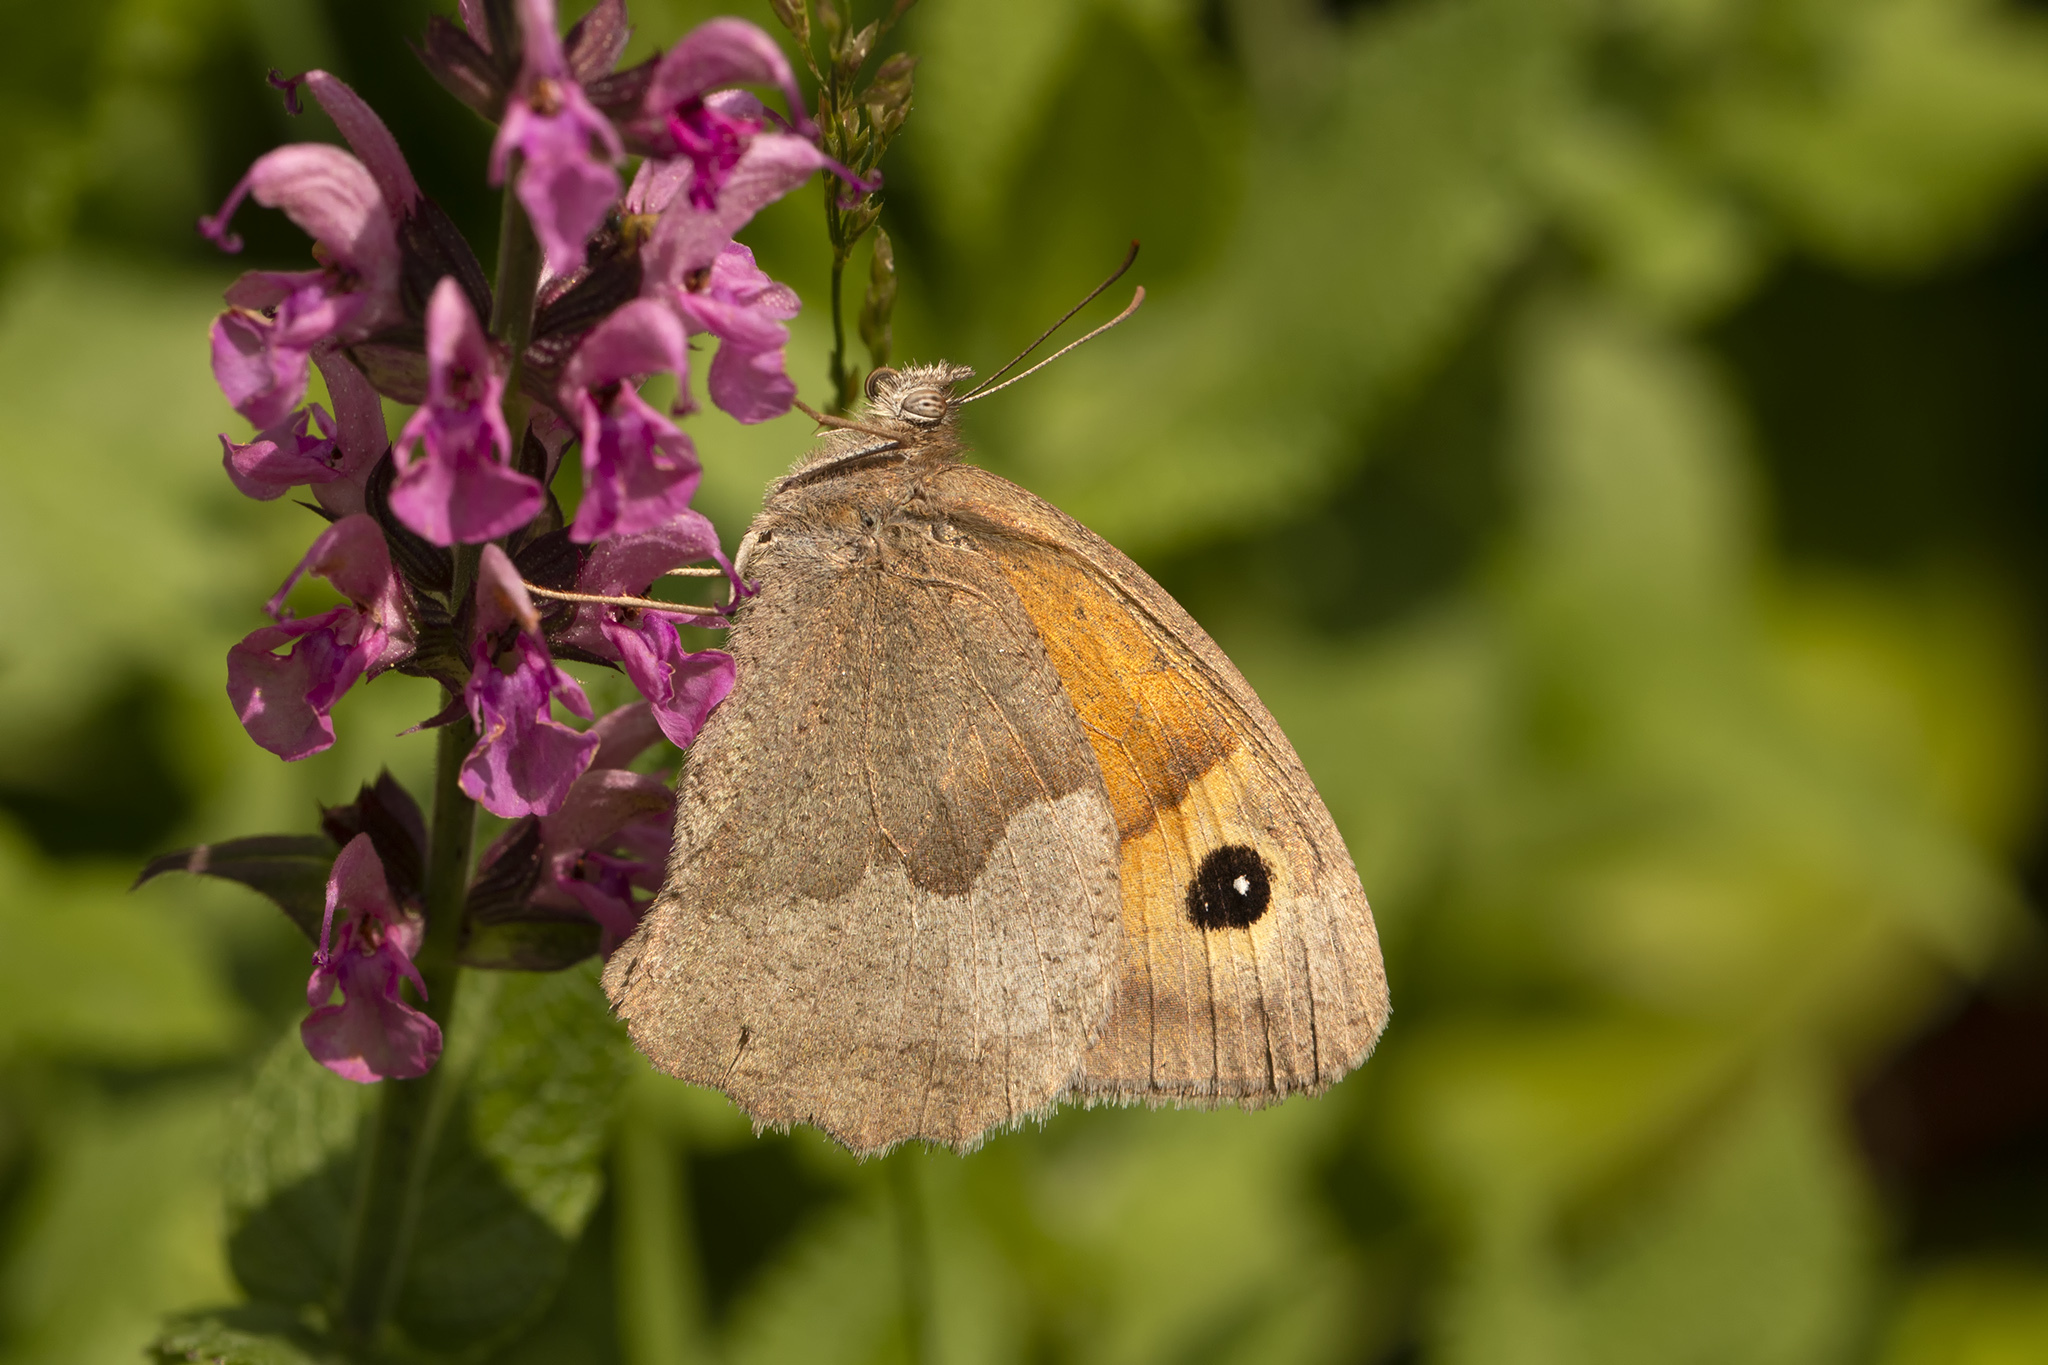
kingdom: Animalia
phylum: Arthropoda
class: Insecta
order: Lepidoptera
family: Nymphalidae
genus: Maniola
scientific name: Maniola jurtina
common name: Meadow brown
